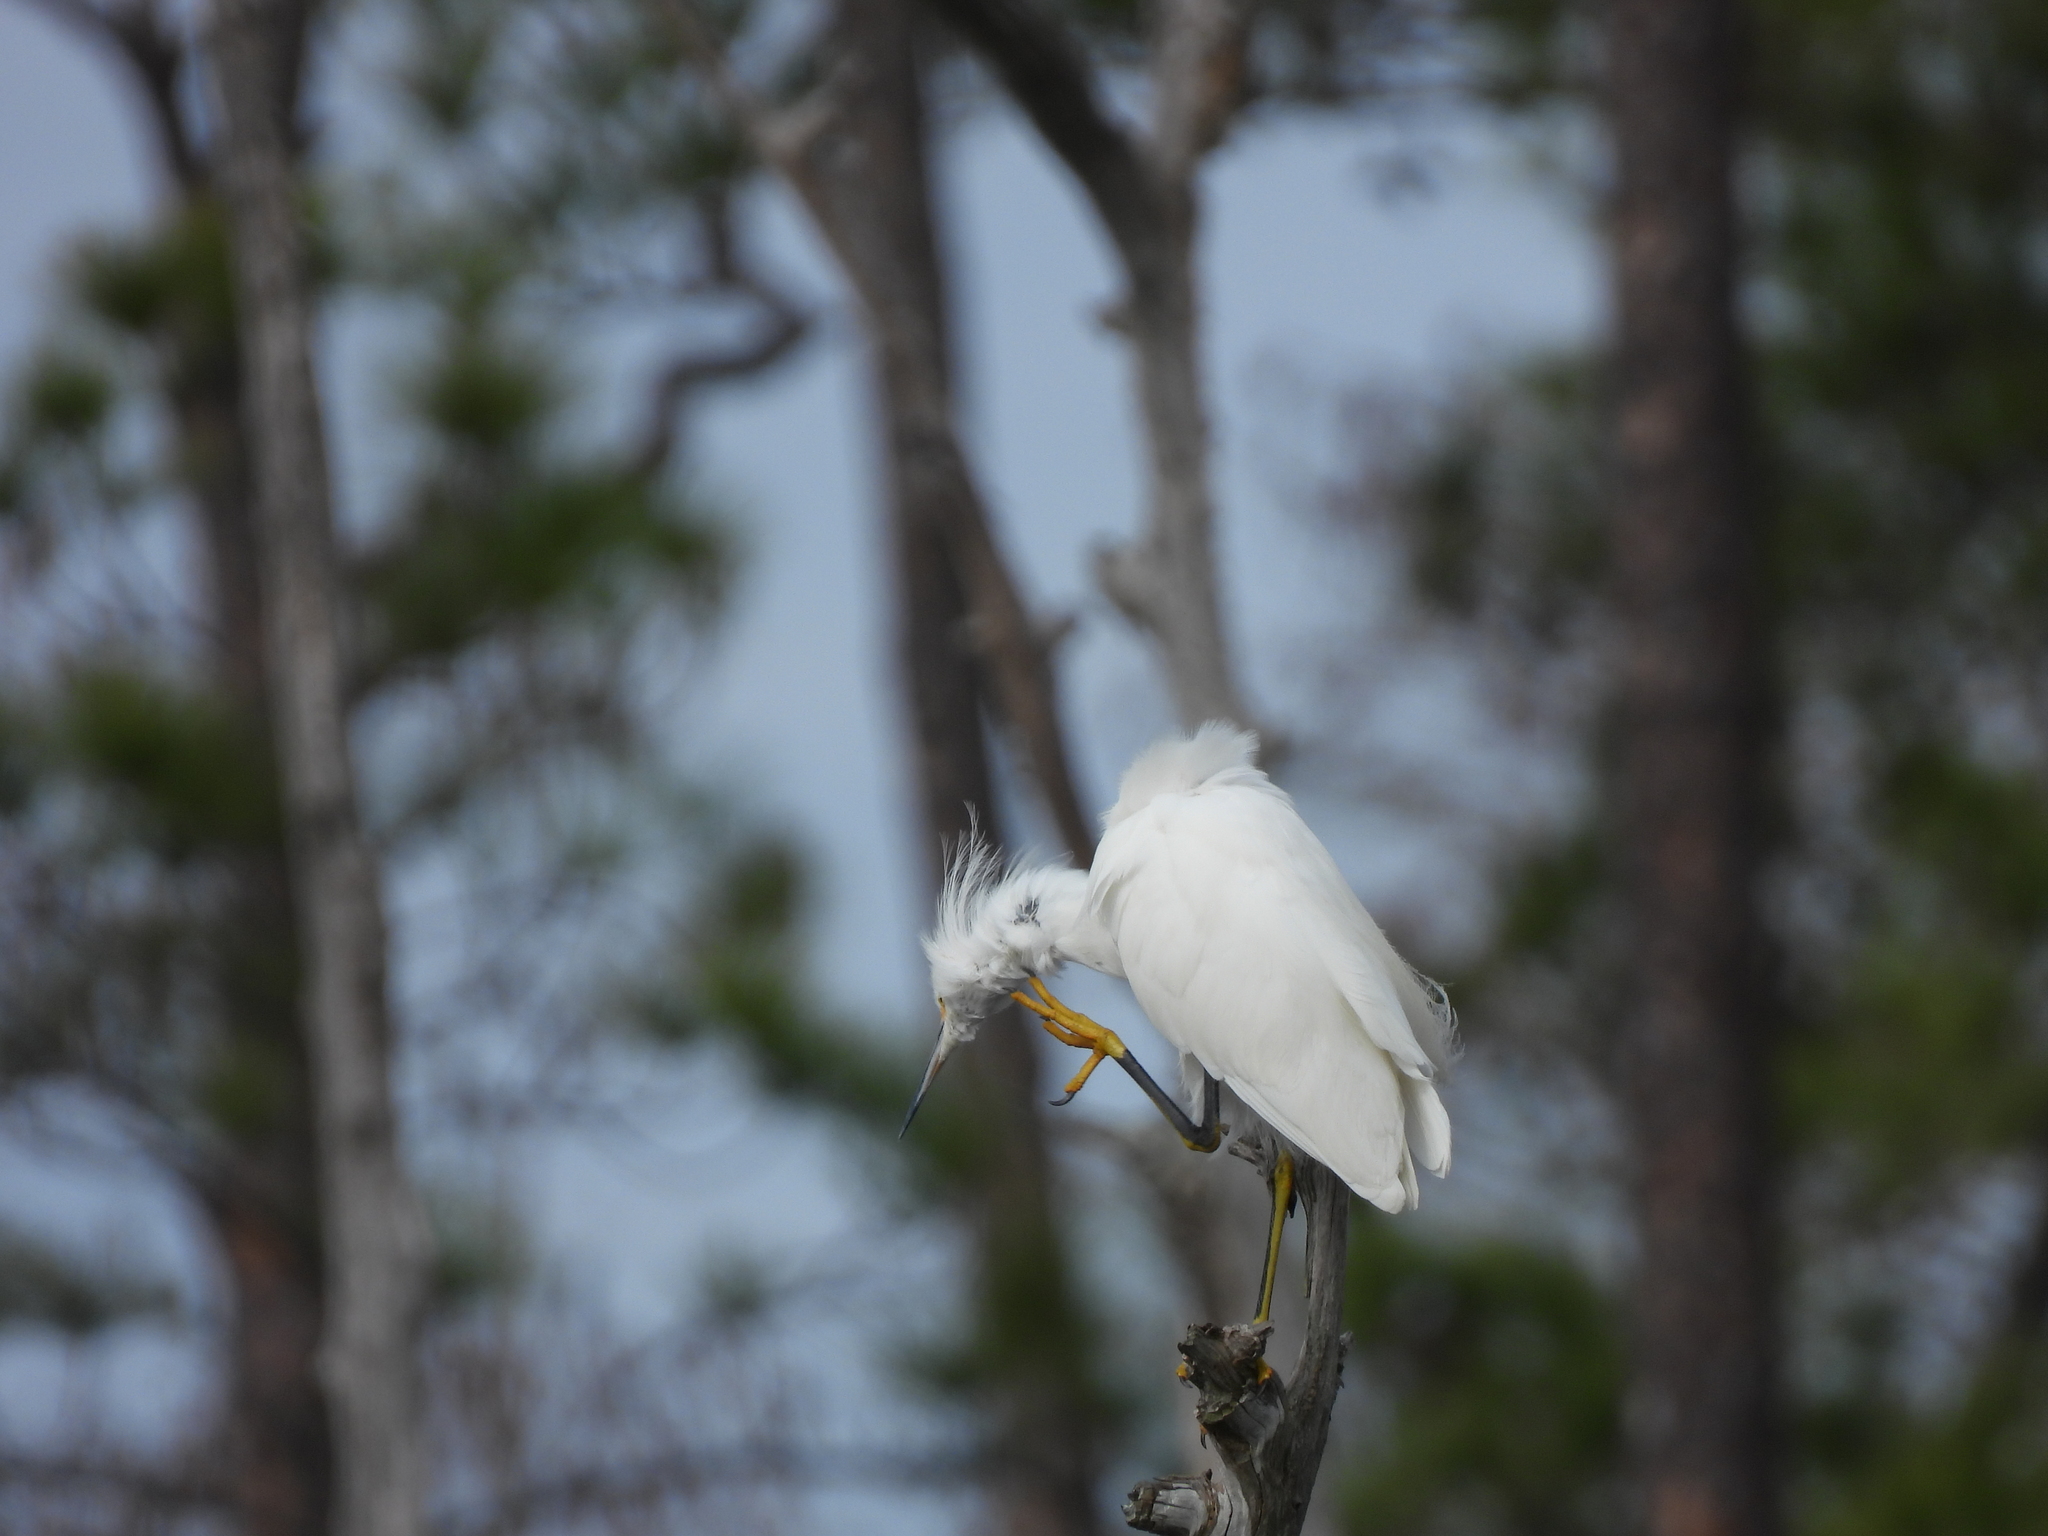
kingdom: Animalia
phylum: Chordata
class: Aves
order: Pelecaniformes
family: Ardeidae
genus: Egretta
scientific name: Egretta thula
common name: Snowy egret
